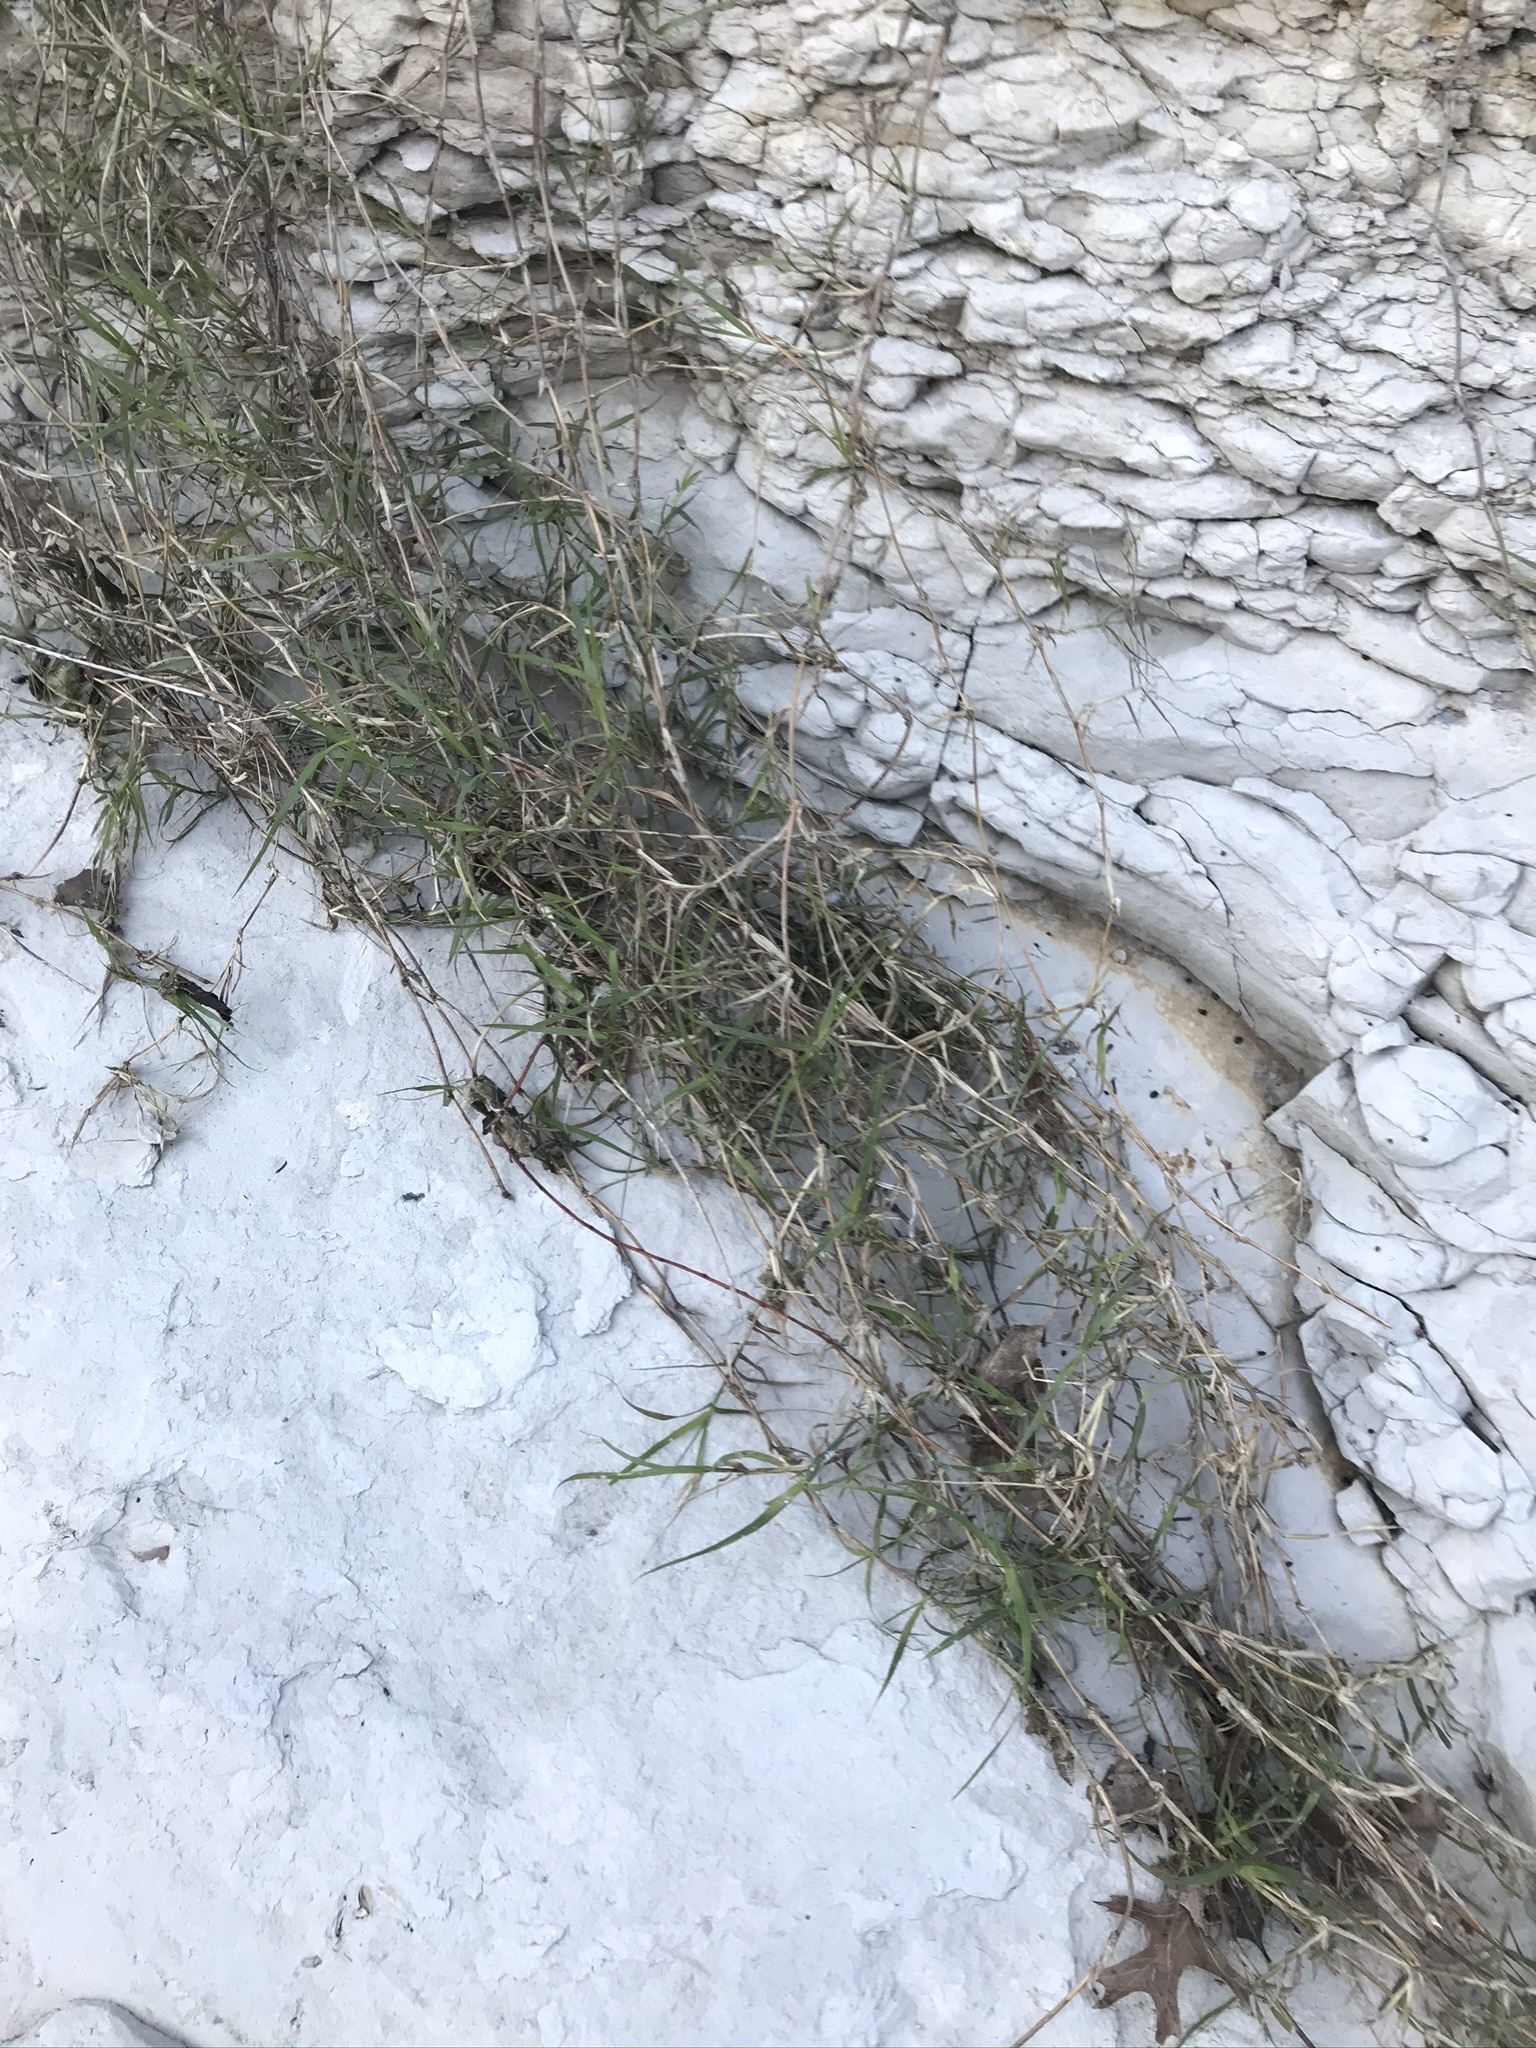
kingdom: Plantae
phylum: Tracheophyta
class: Liliopsida
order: Poales
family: Poaceae
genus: Cynodon
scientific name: Cynodon dactylon
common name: Bermuda grass
